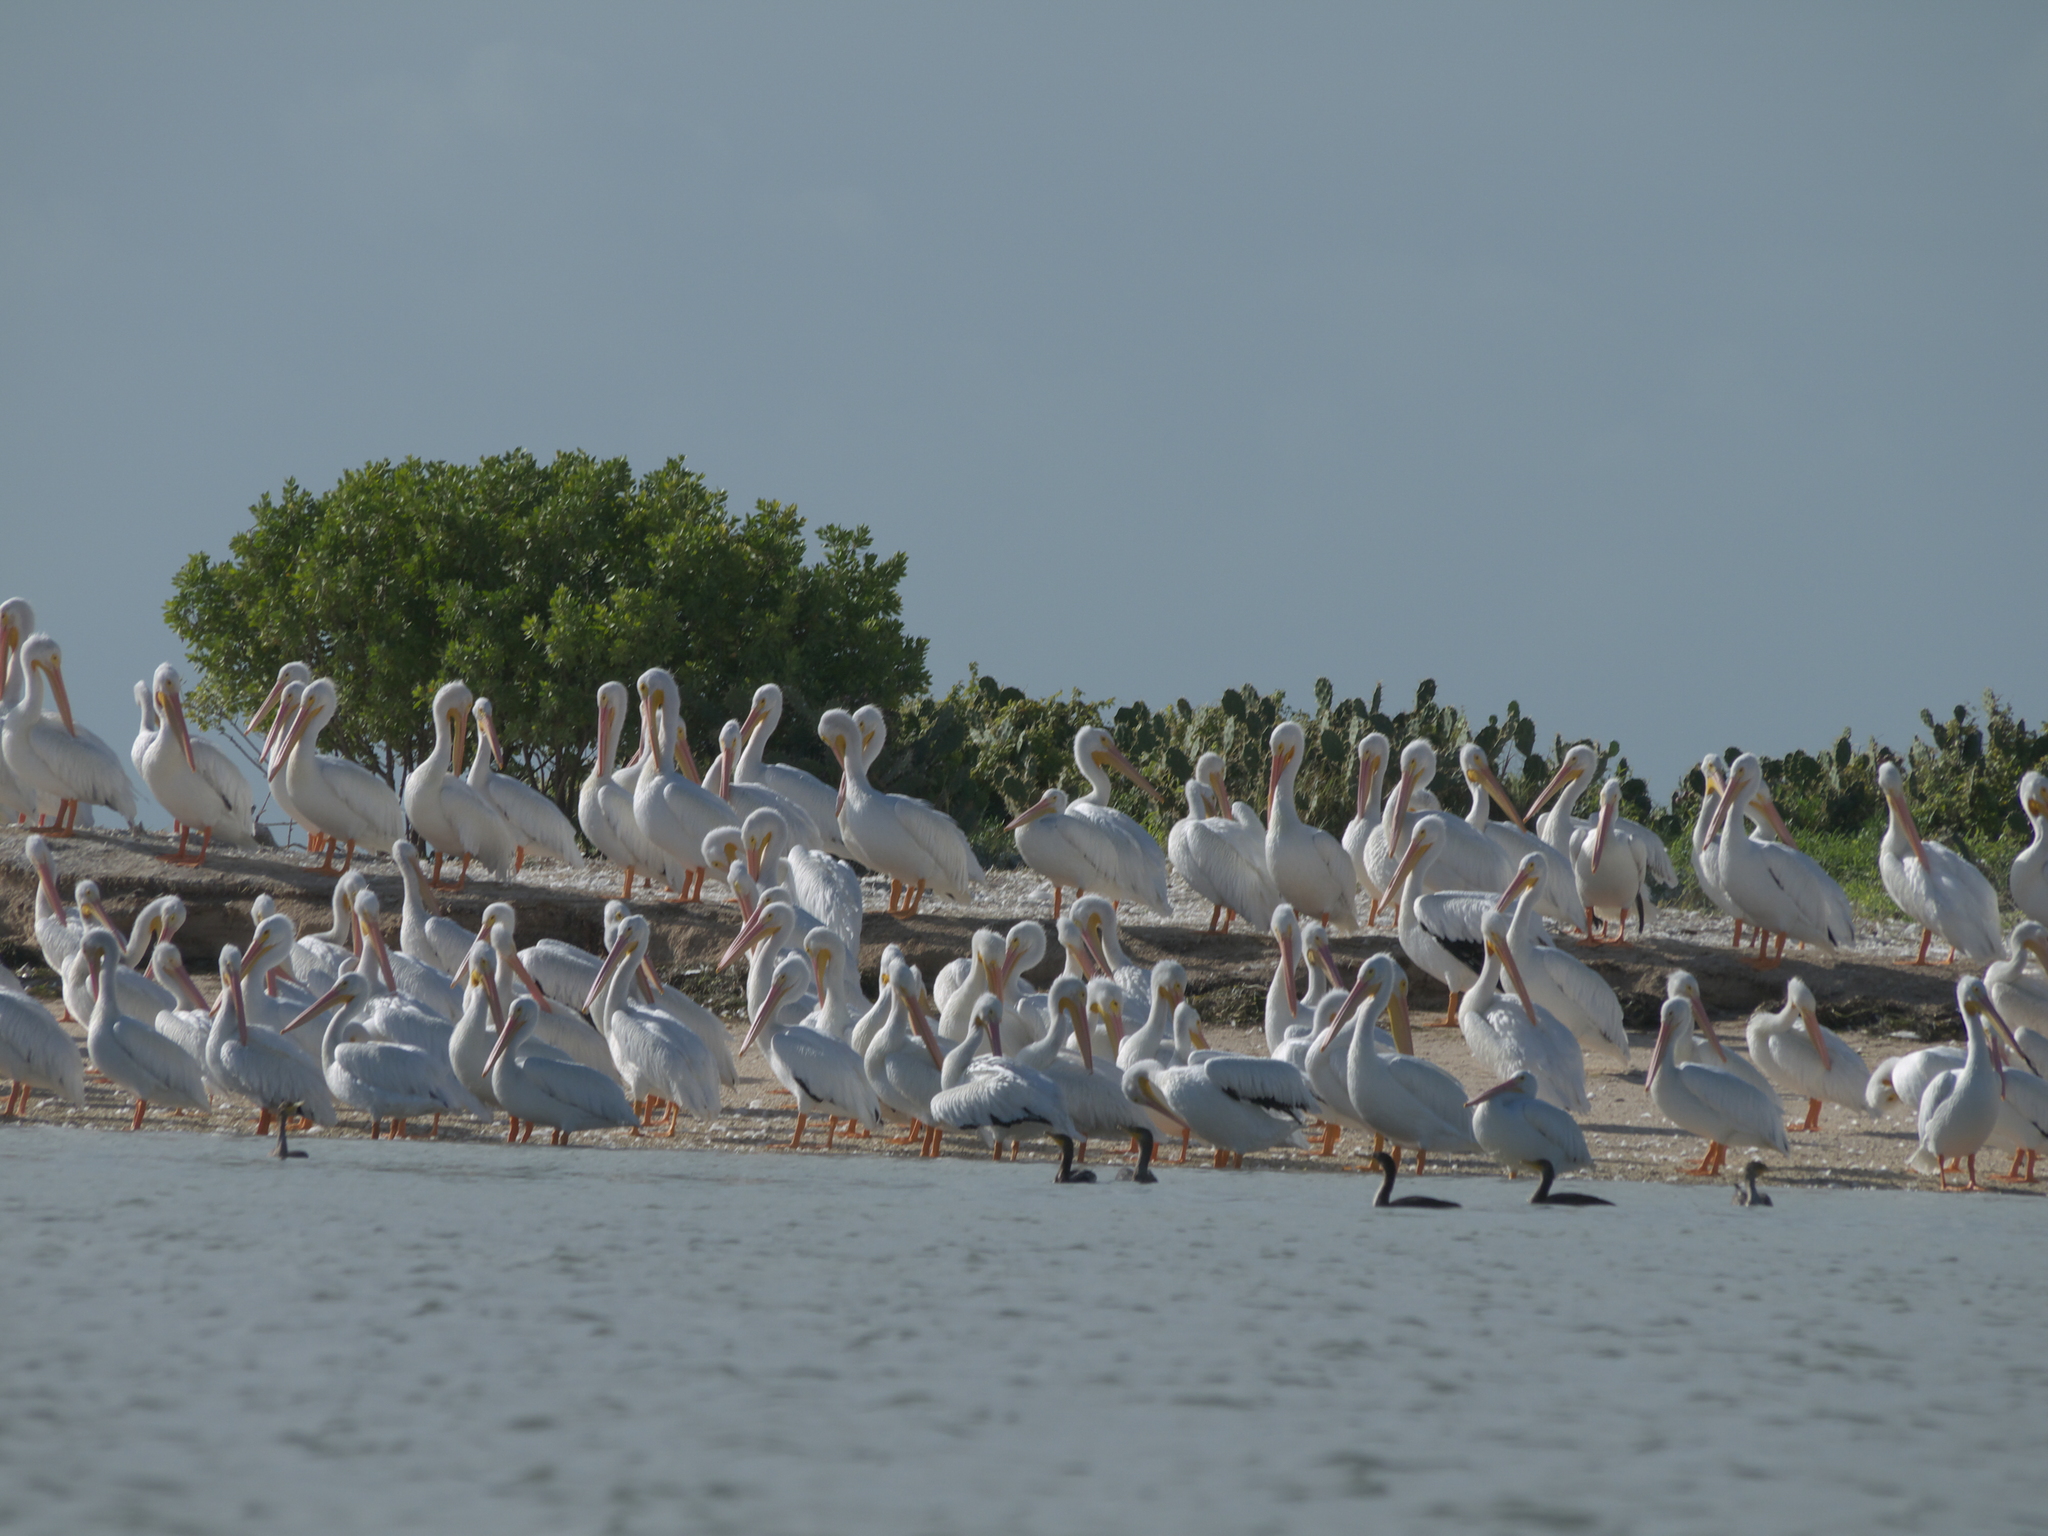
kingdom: Animalia
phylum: Chordata
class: Aves
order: Pelecaniformes
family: Pelecanidae
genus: Pelecanus
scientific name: Pelecanus erythrorhynchos
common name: American white pelican
